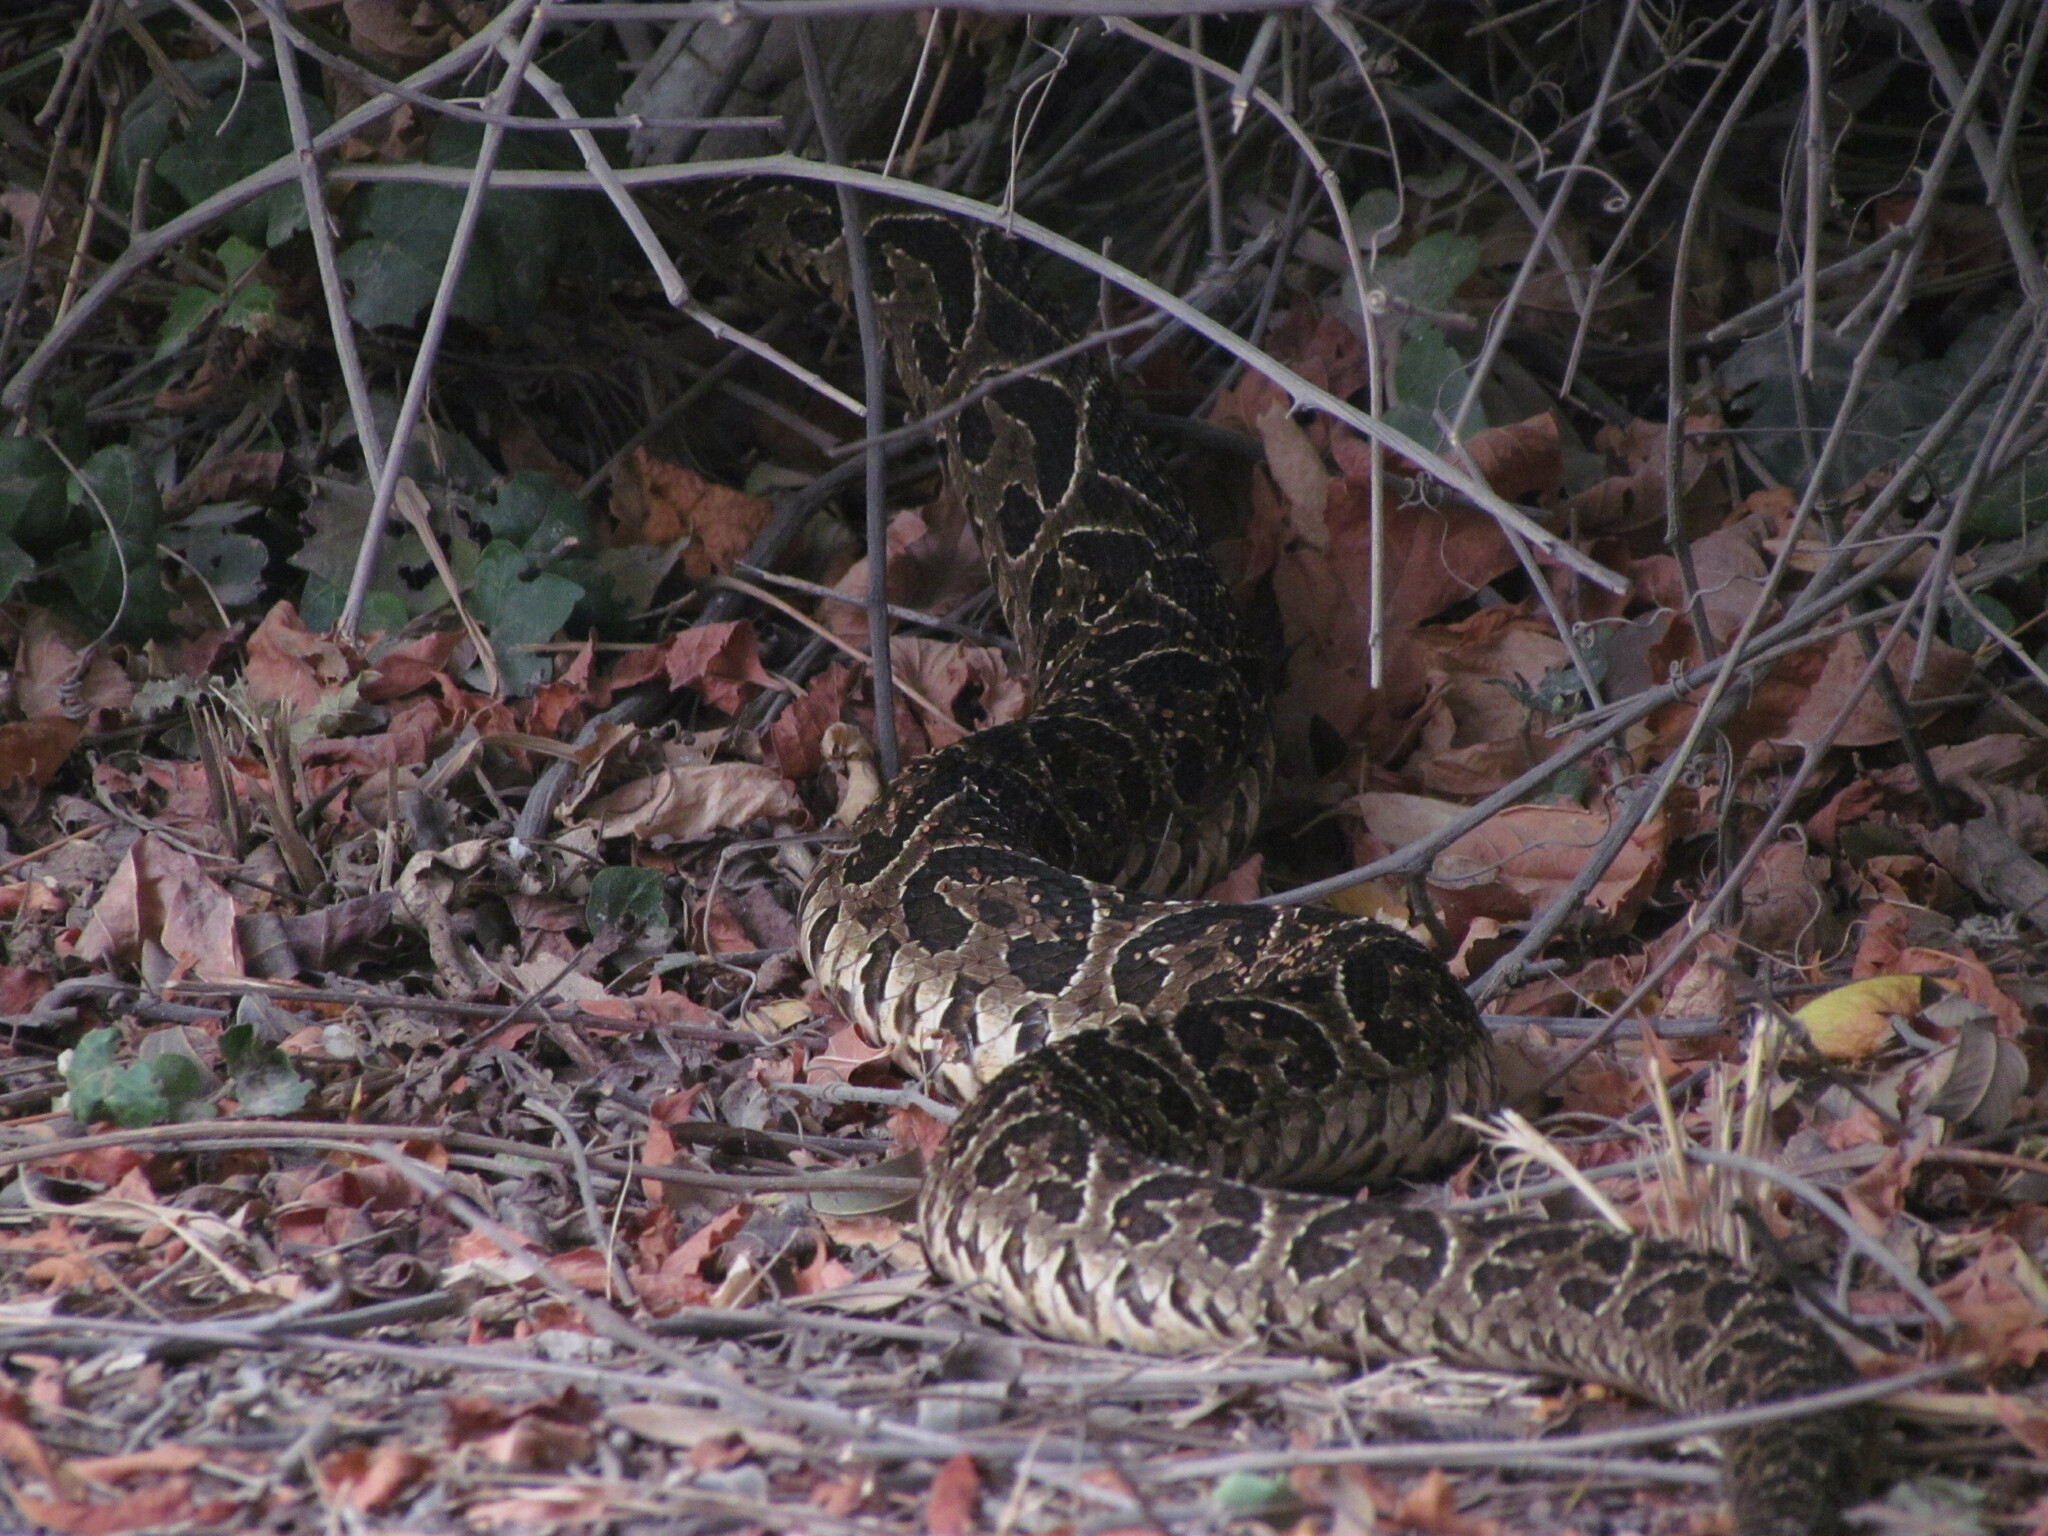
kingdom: Animalia
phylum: Chordata
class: Squamata
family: Viperidae
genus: Bothrops
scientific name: Bothrops alternatus
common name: Urutu
